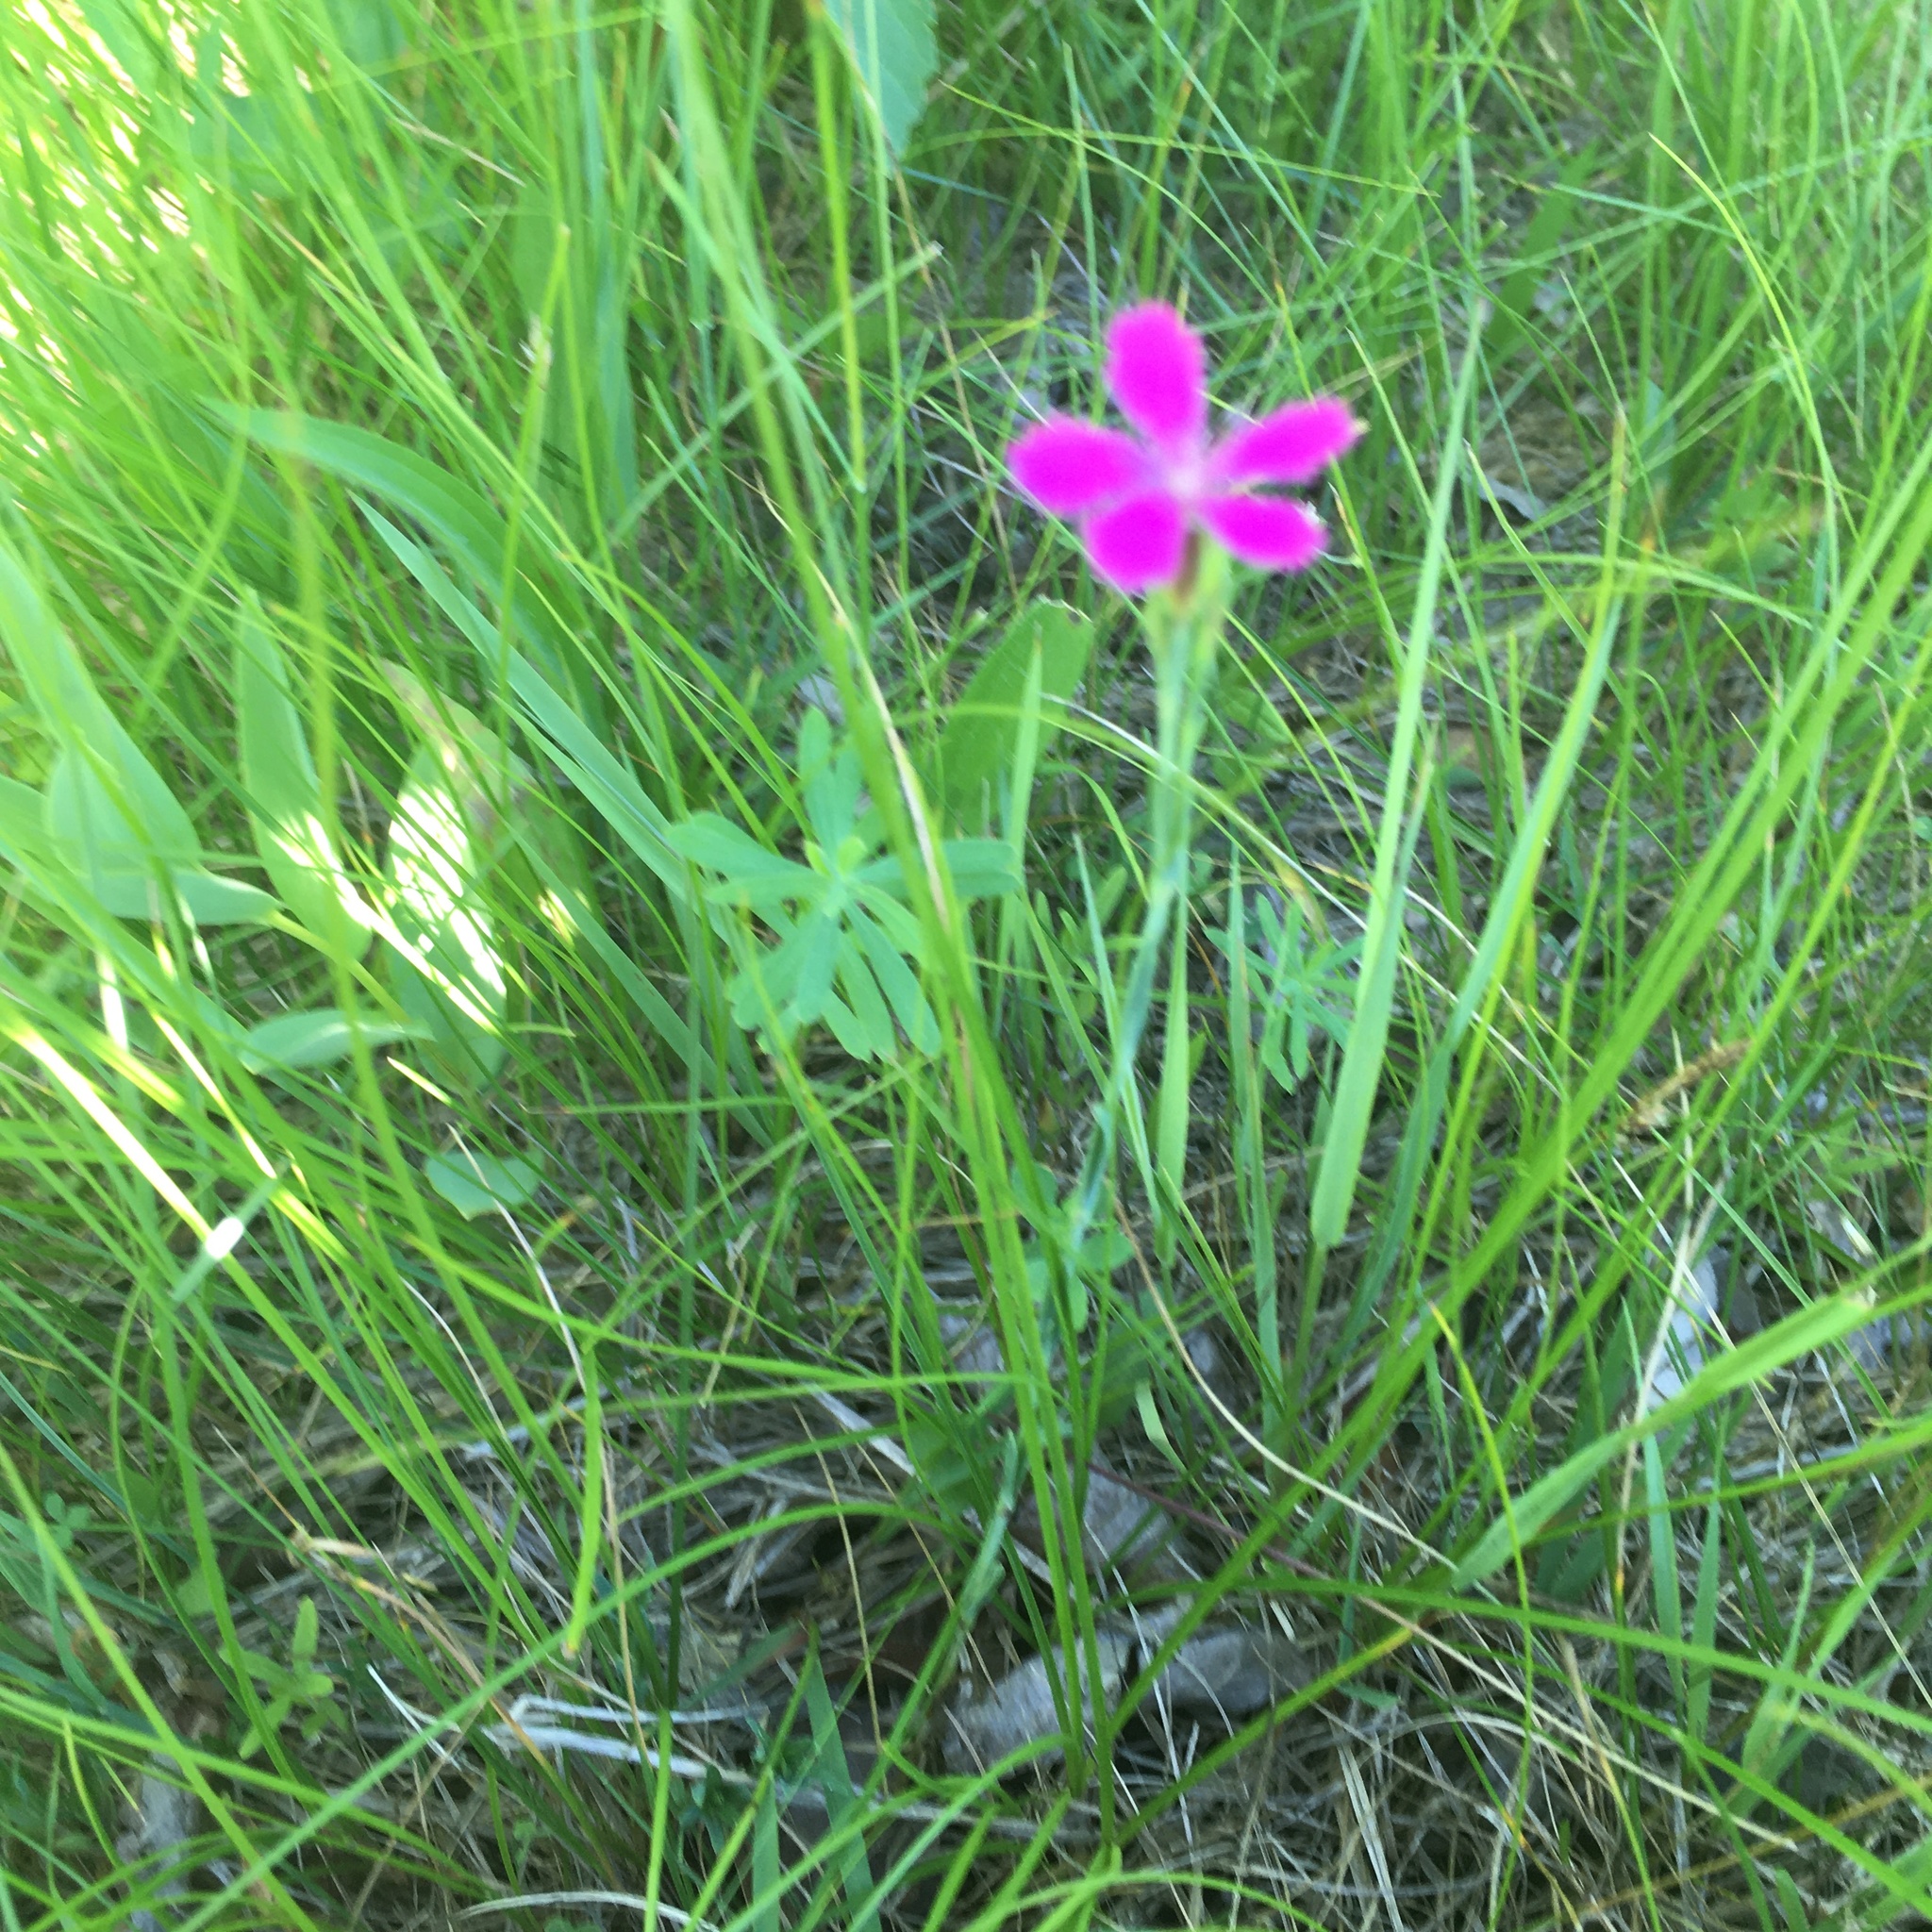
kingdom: Plantae
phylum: Tracheophyta
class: Magnoliopsida
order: Caryophyllales
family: Caryophyllaceae
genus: Dianthus
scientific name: Dianthus deltoides
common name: Maiden pink
